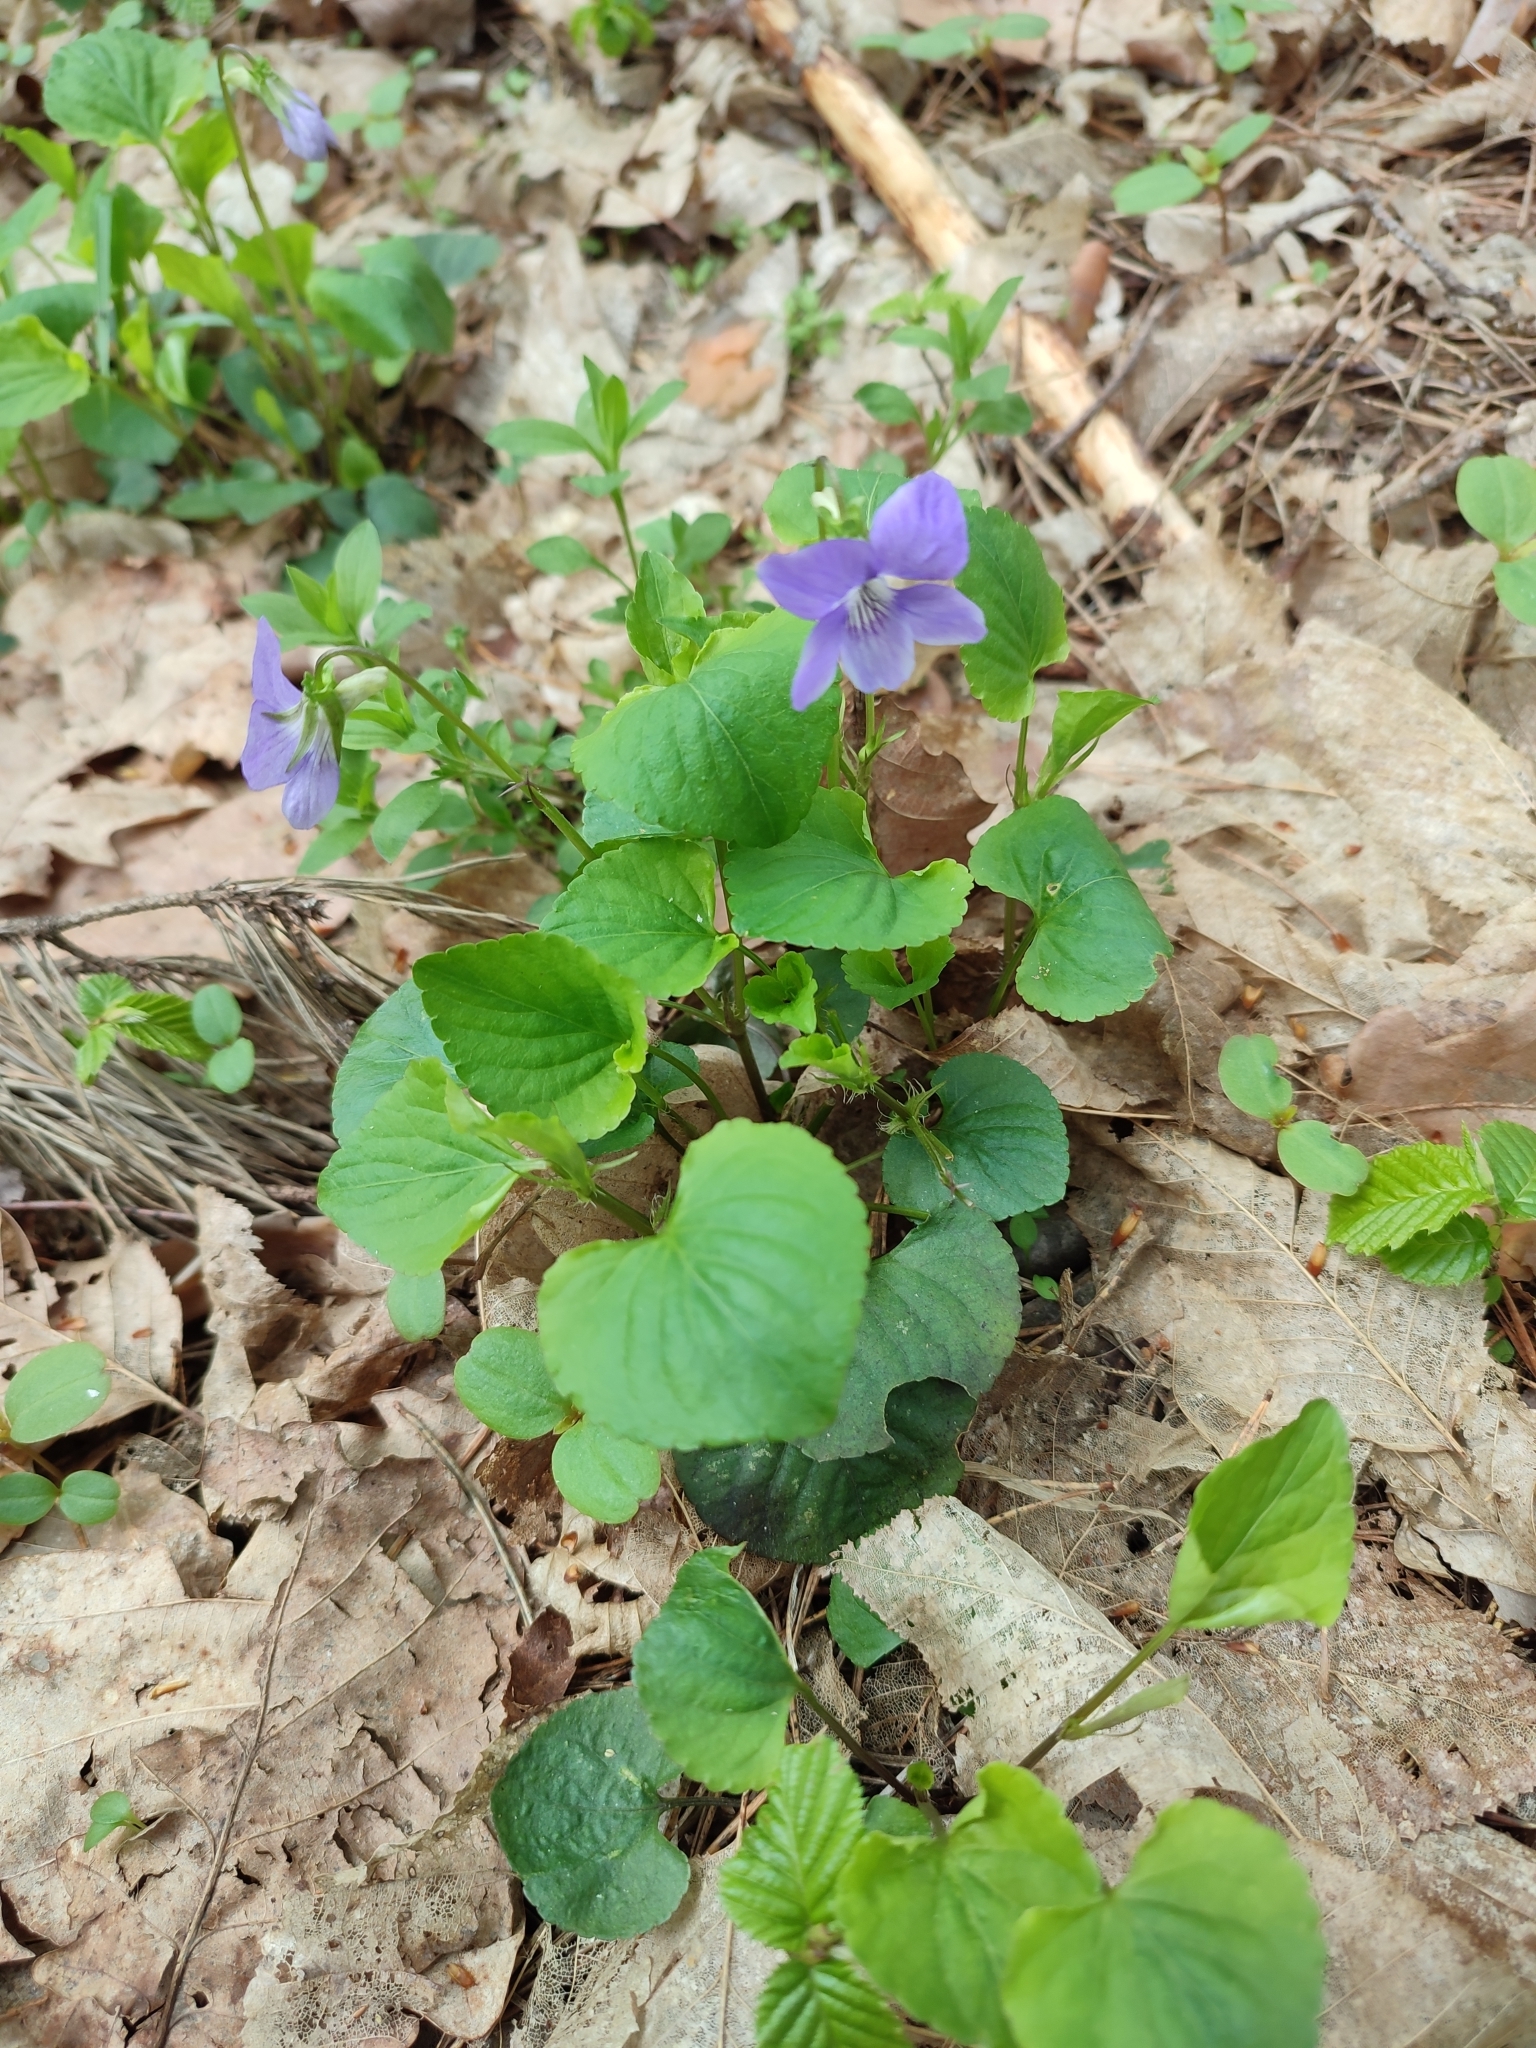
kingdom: Plantae
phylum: Tracheophyta
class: Magnoliopsida
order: Malpighiales
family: Violaceae
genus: Viola
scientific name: Viola riviniana
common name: Common dog-violet
